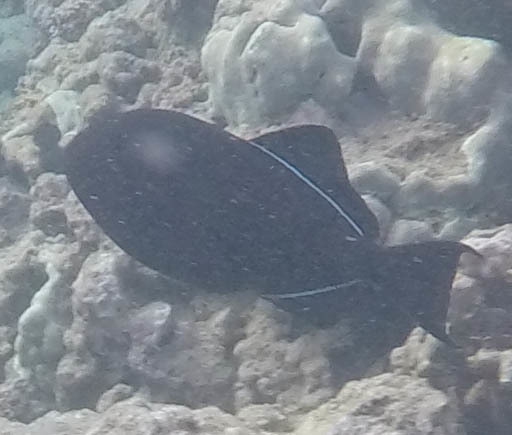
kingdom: Animalia
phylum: Chordata
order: Tetraodontiformes
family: Balistidae
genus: Melichthys
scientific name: Melichthys niger
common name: Black durgon
